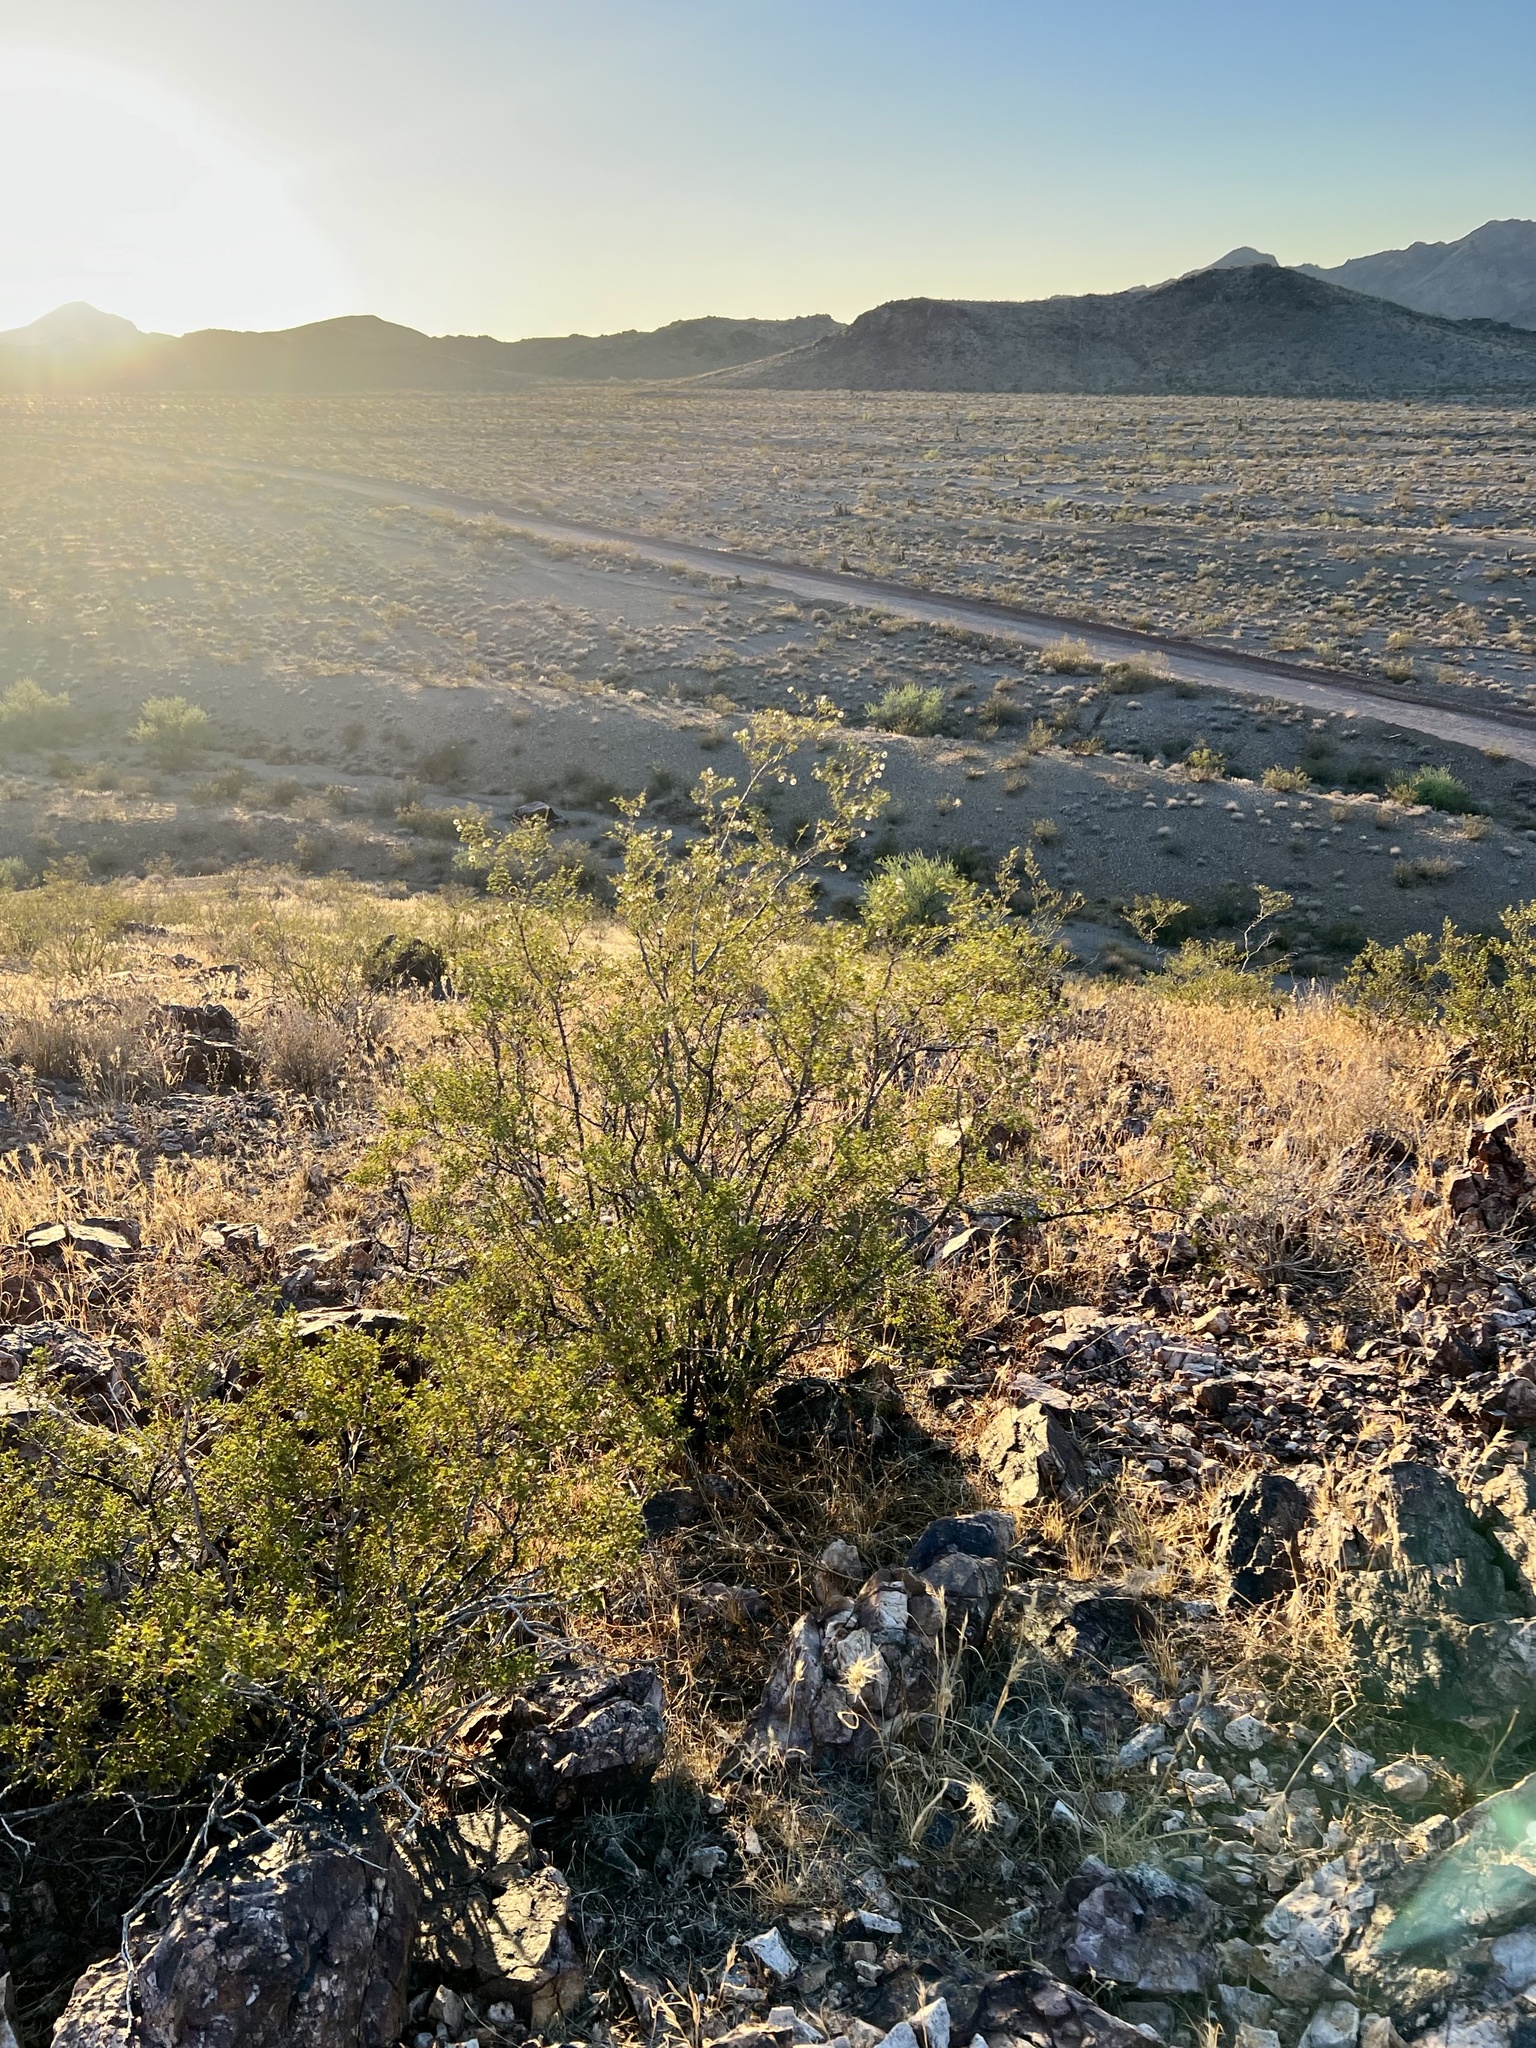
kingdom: Plantae
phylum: Tracheophyta
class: Magnoliopsida
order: Zygophyllales
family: Zygophyllaceae
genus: Larrea
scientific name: Larrea tridentata
